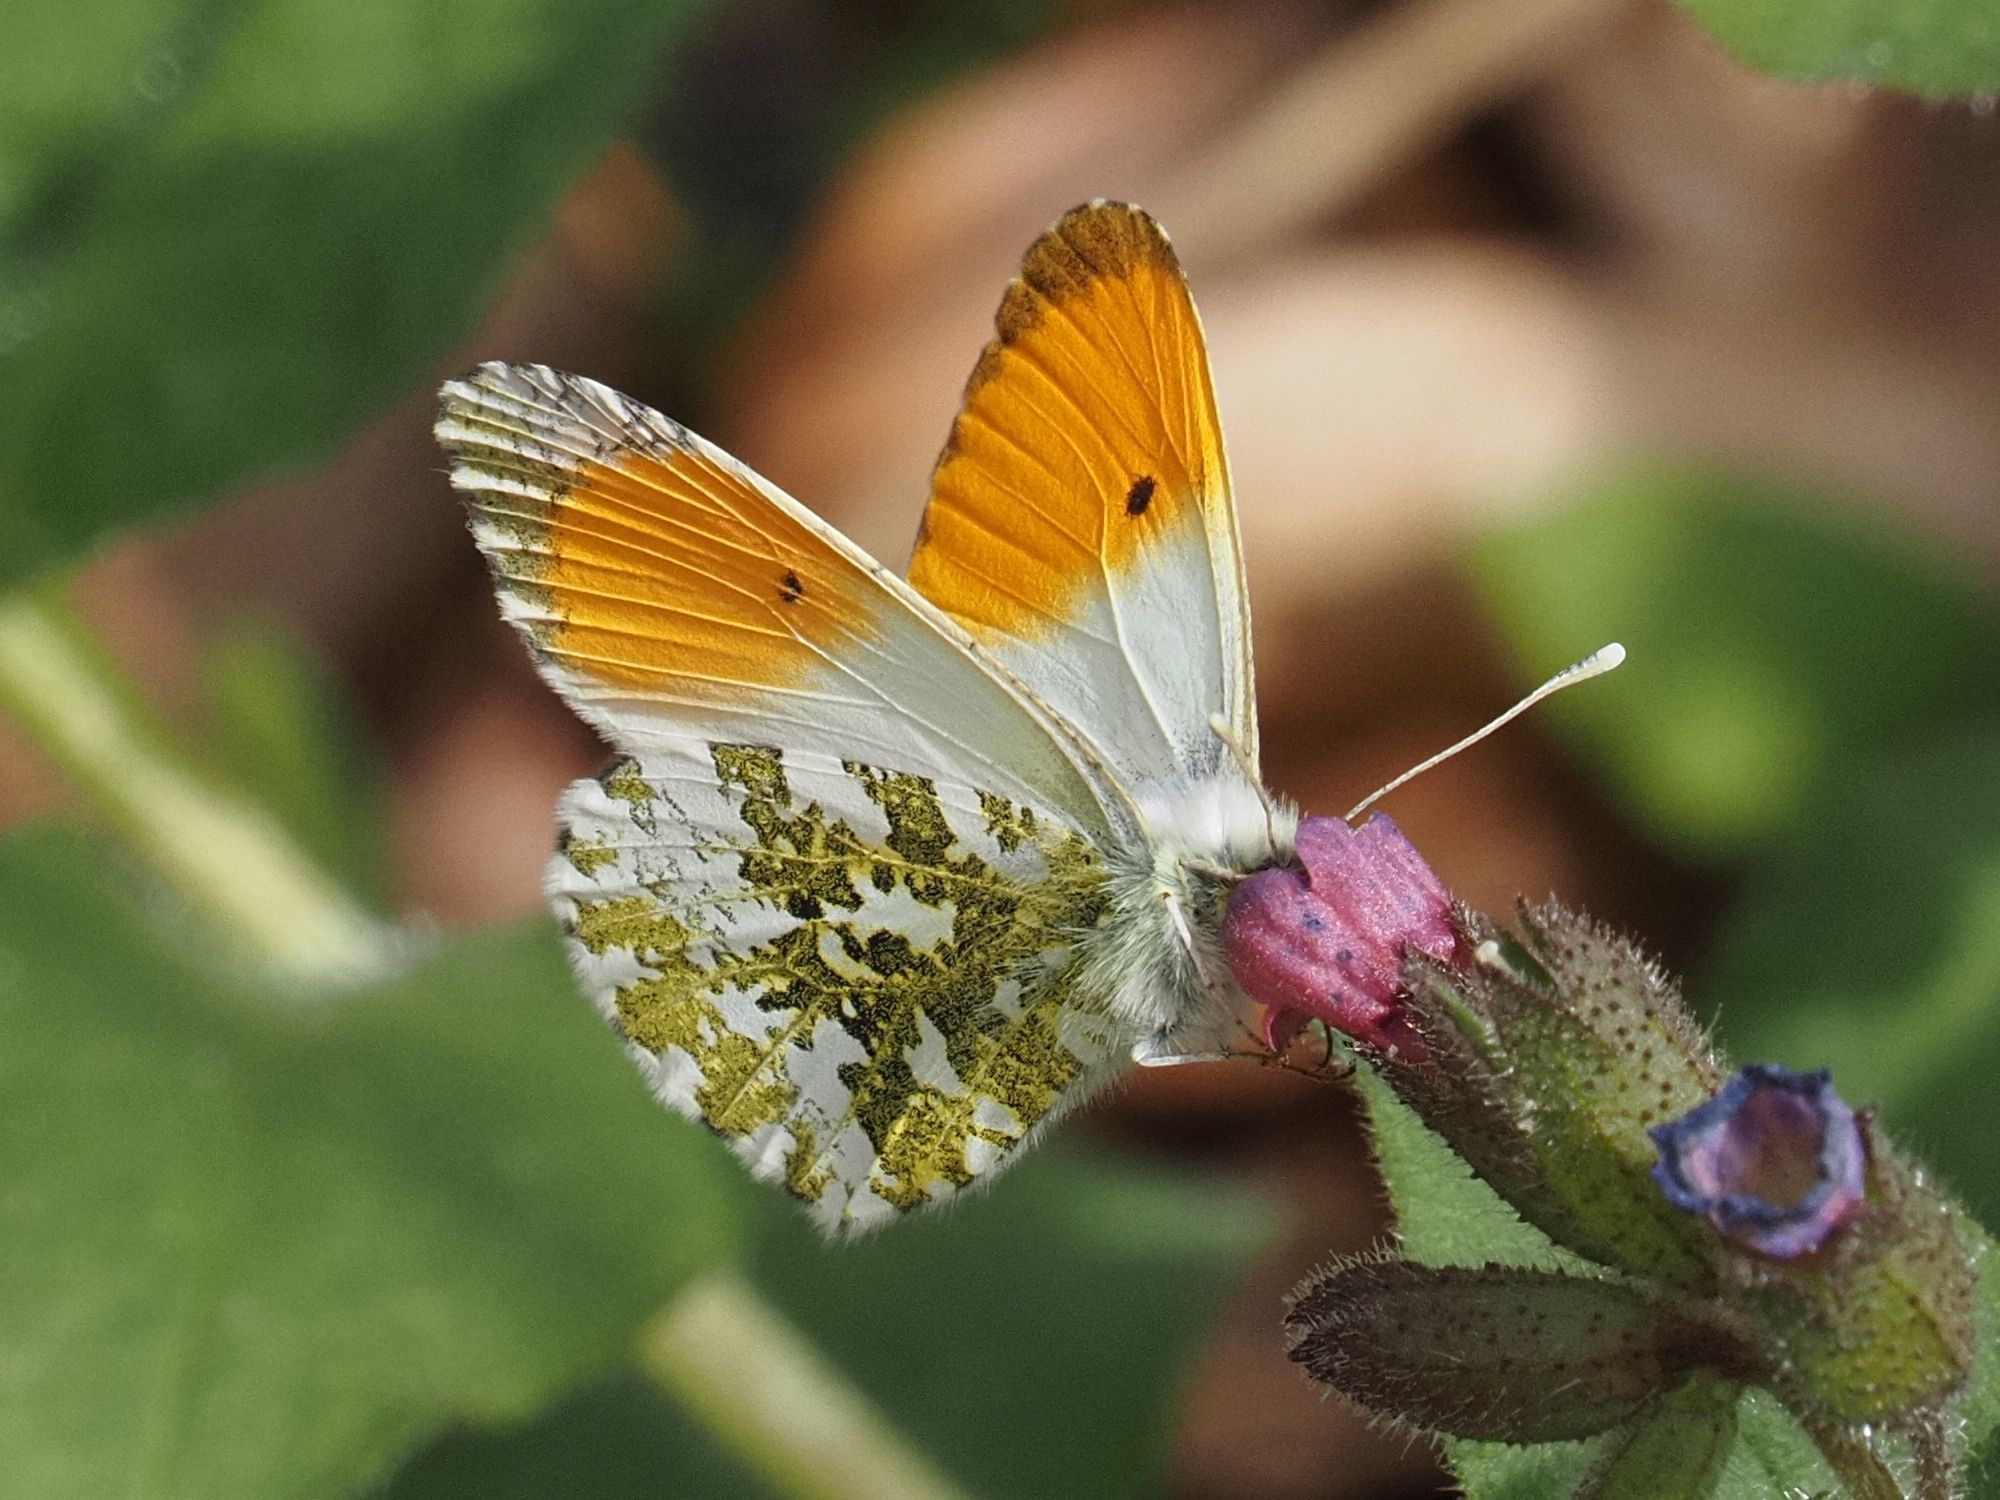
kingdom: Animalia
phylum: Arthropoda
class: Insecta
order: Lepidoptera
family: Pieridae
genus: Anthocharis
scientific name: Anthocharis cardamines
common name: Orange-tip
